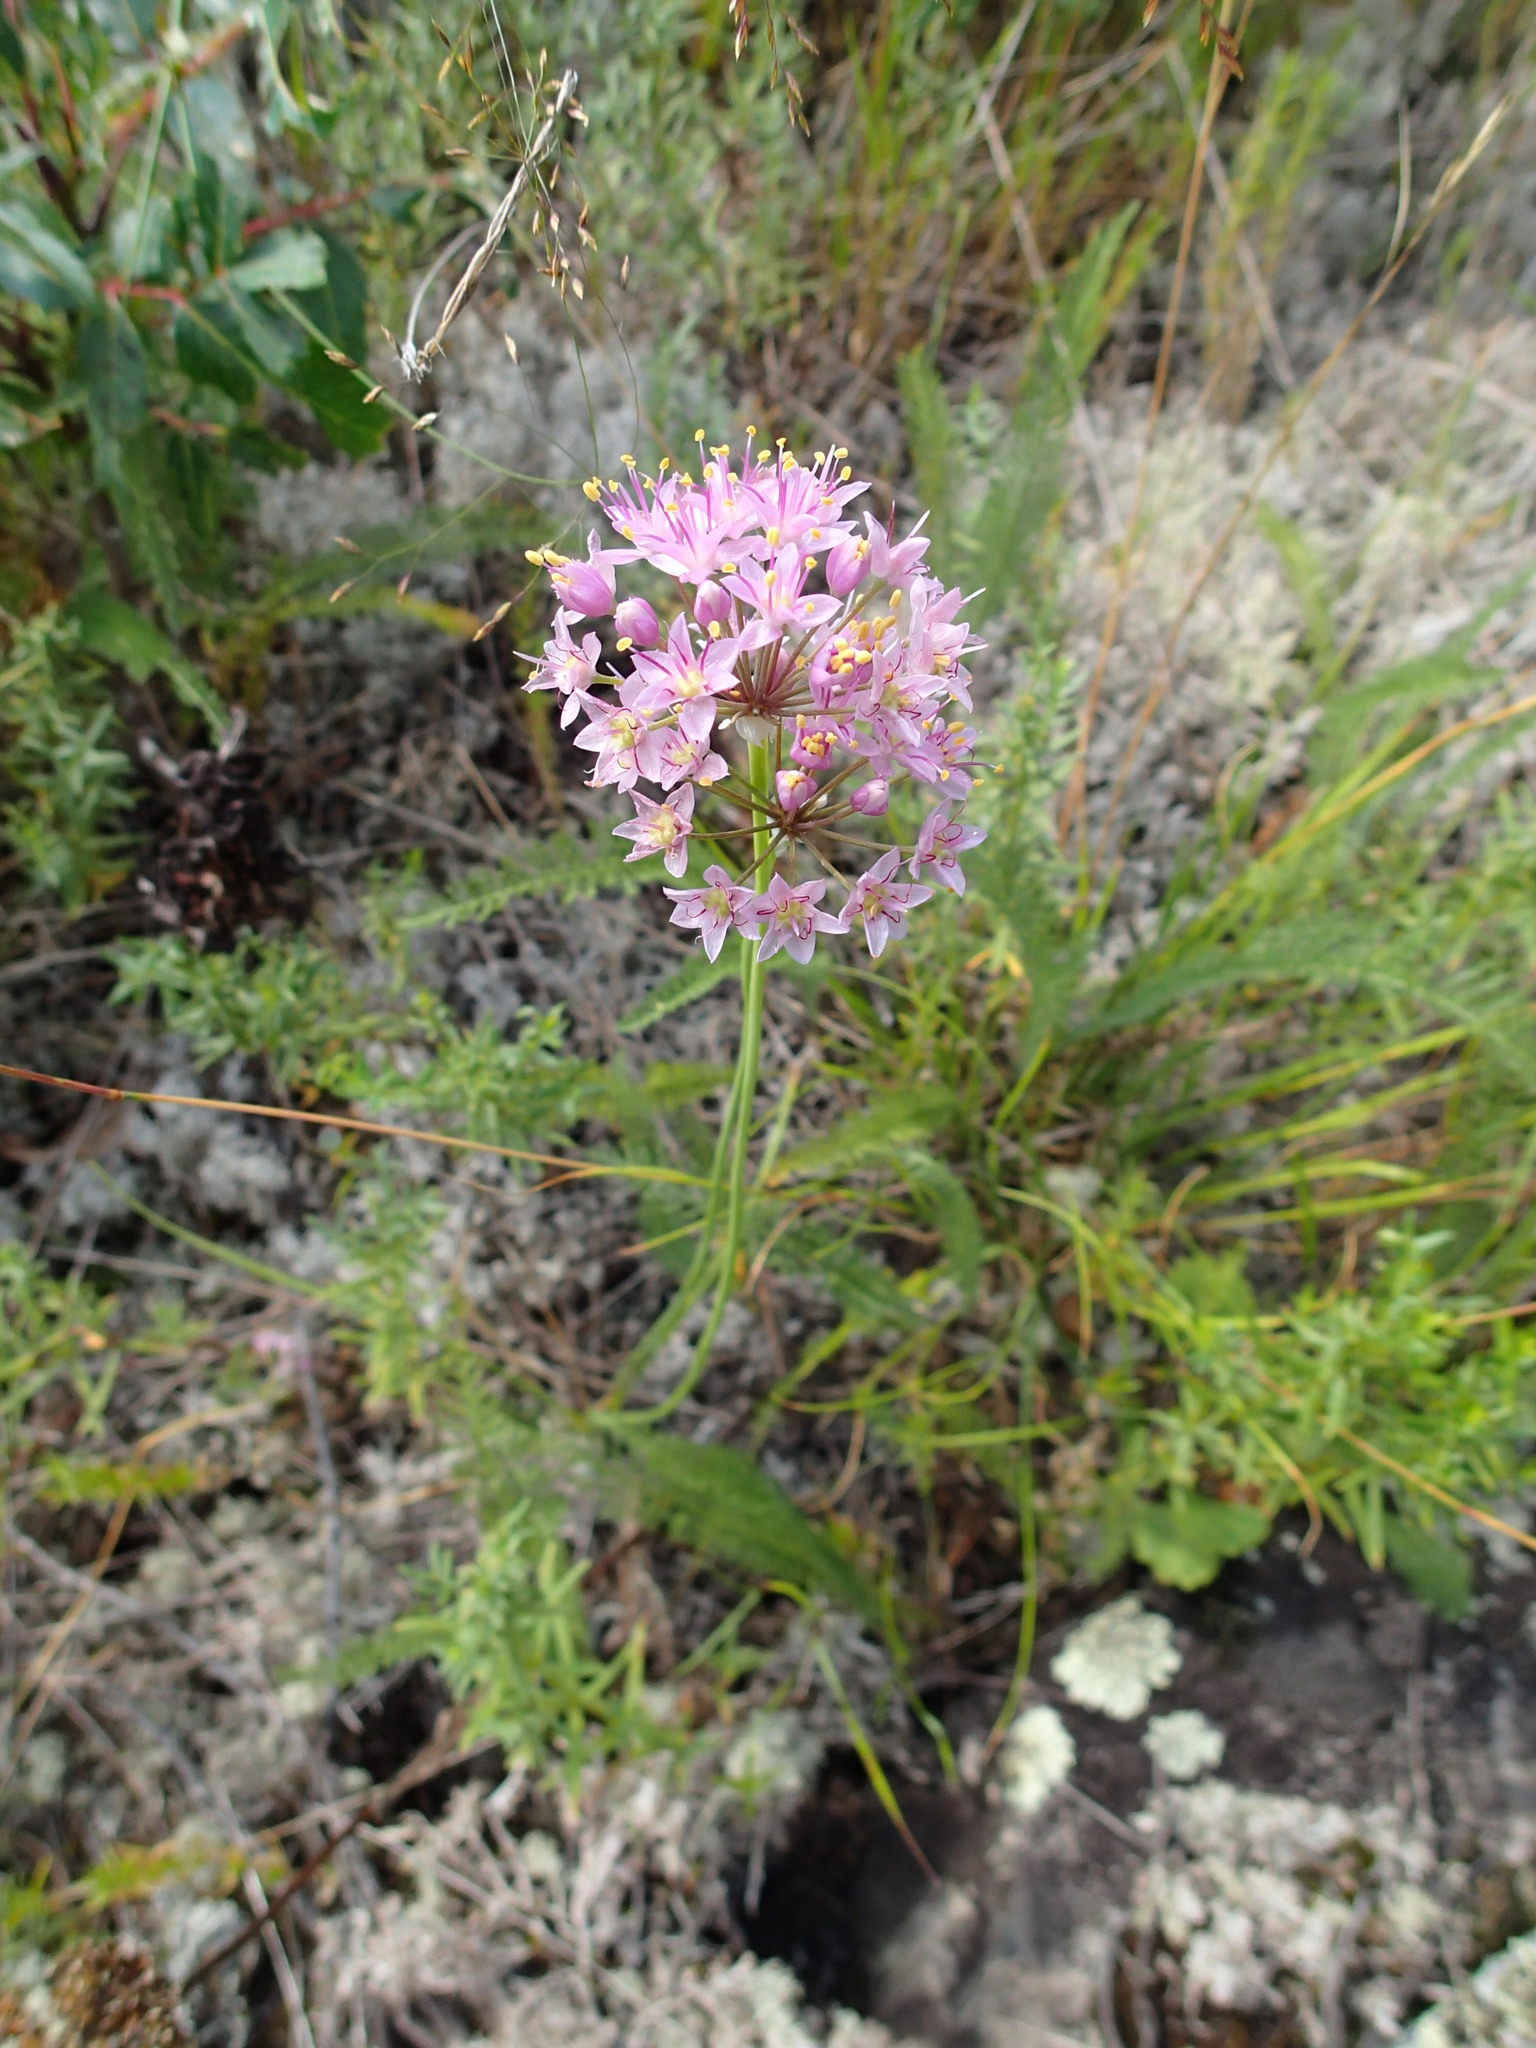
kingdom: Plantae
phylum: Tracheophyta
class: Liliopsida
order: Asparagales
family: Amaryllidaceae
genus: Allium
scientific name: Allium stellatum
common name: Autumn onion
